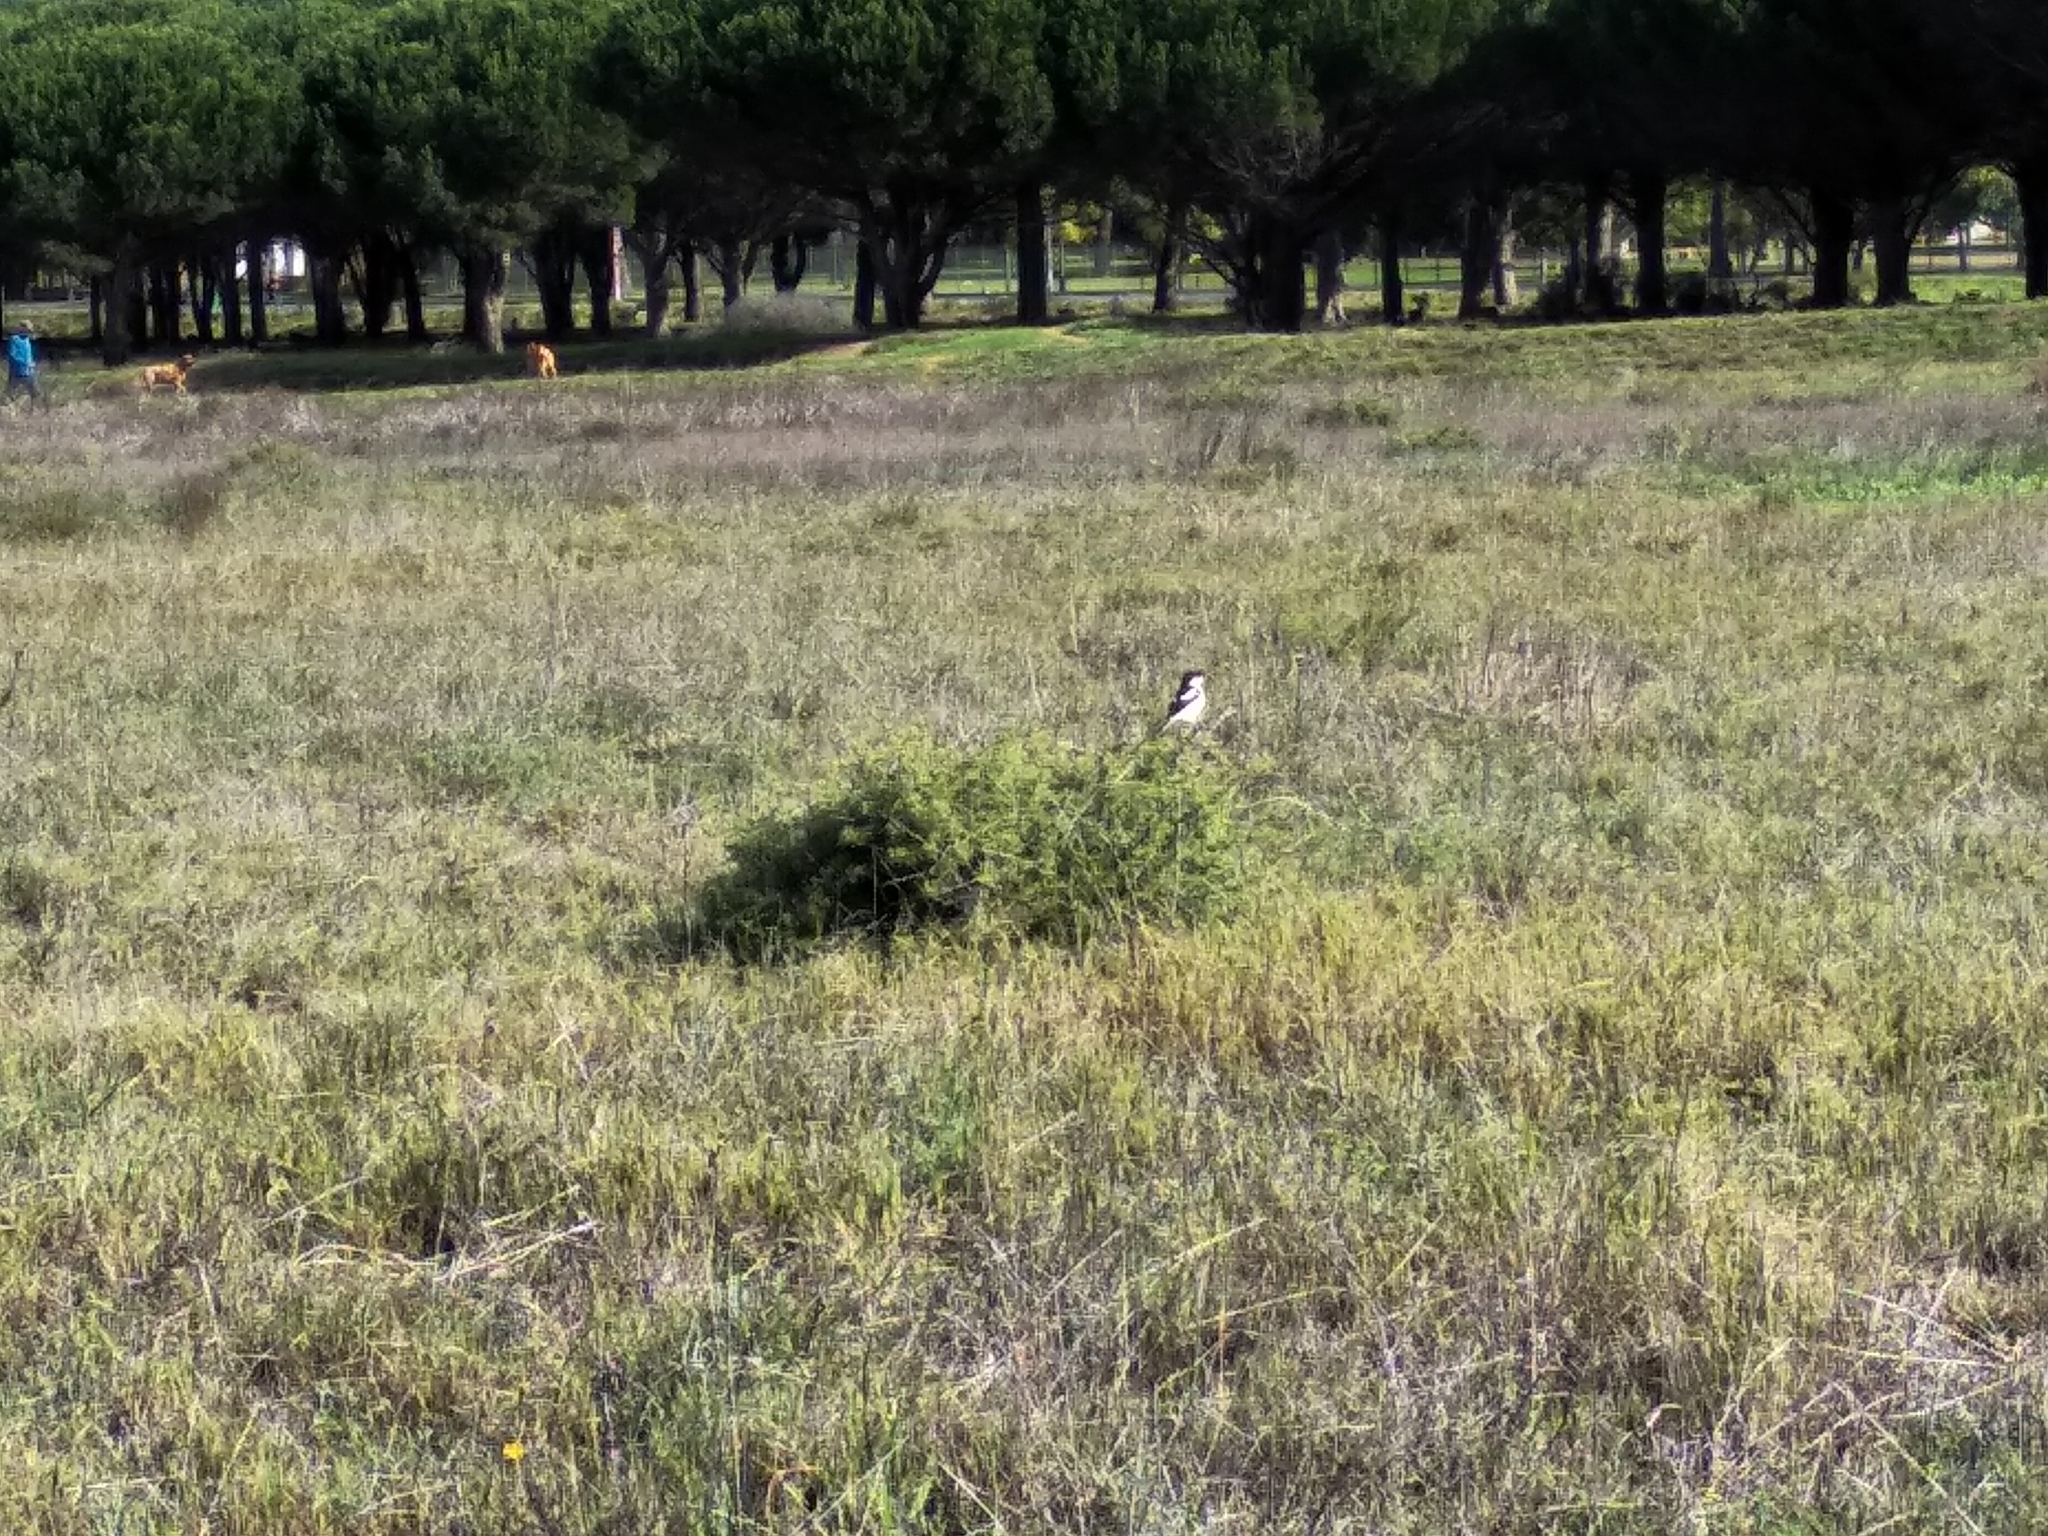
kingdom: Animalia
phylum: Chordata
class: Aves
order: Passeriformes
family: Laniidae
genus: Lanius
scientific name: Lanius collaris
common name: Southern fiscal
